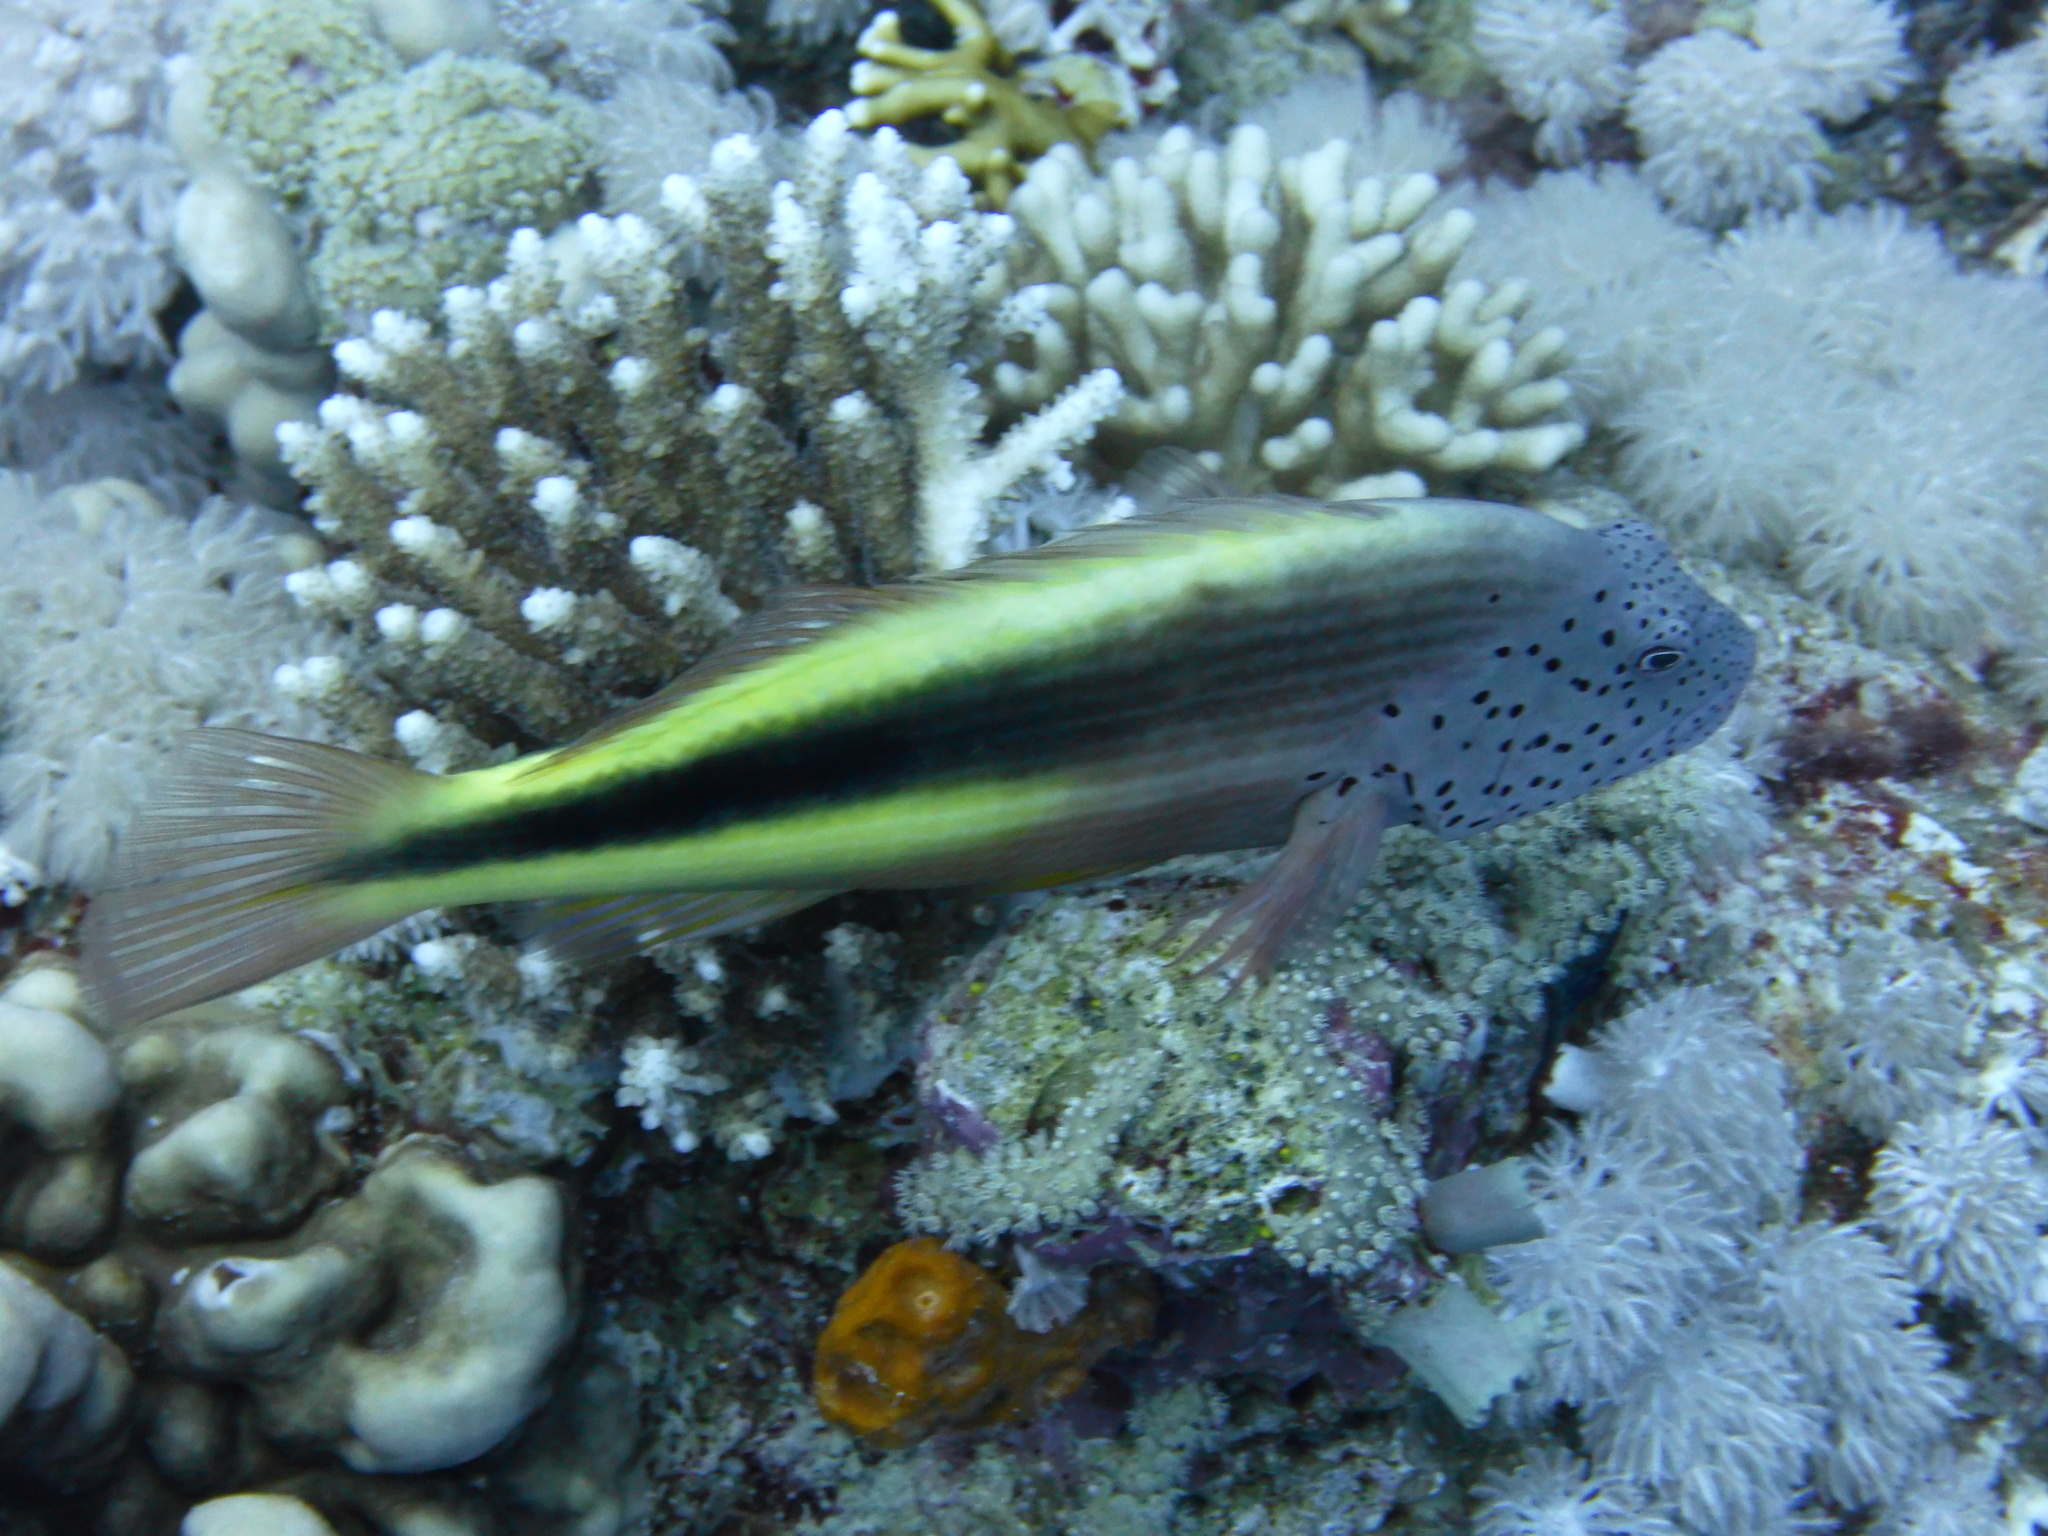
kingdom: Animalia
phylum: Chordata
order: Perciformes
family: Cirrhitidae
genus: Paracirrhites
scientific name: Paracirrhites forsteri
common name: Freckled hawkfish
